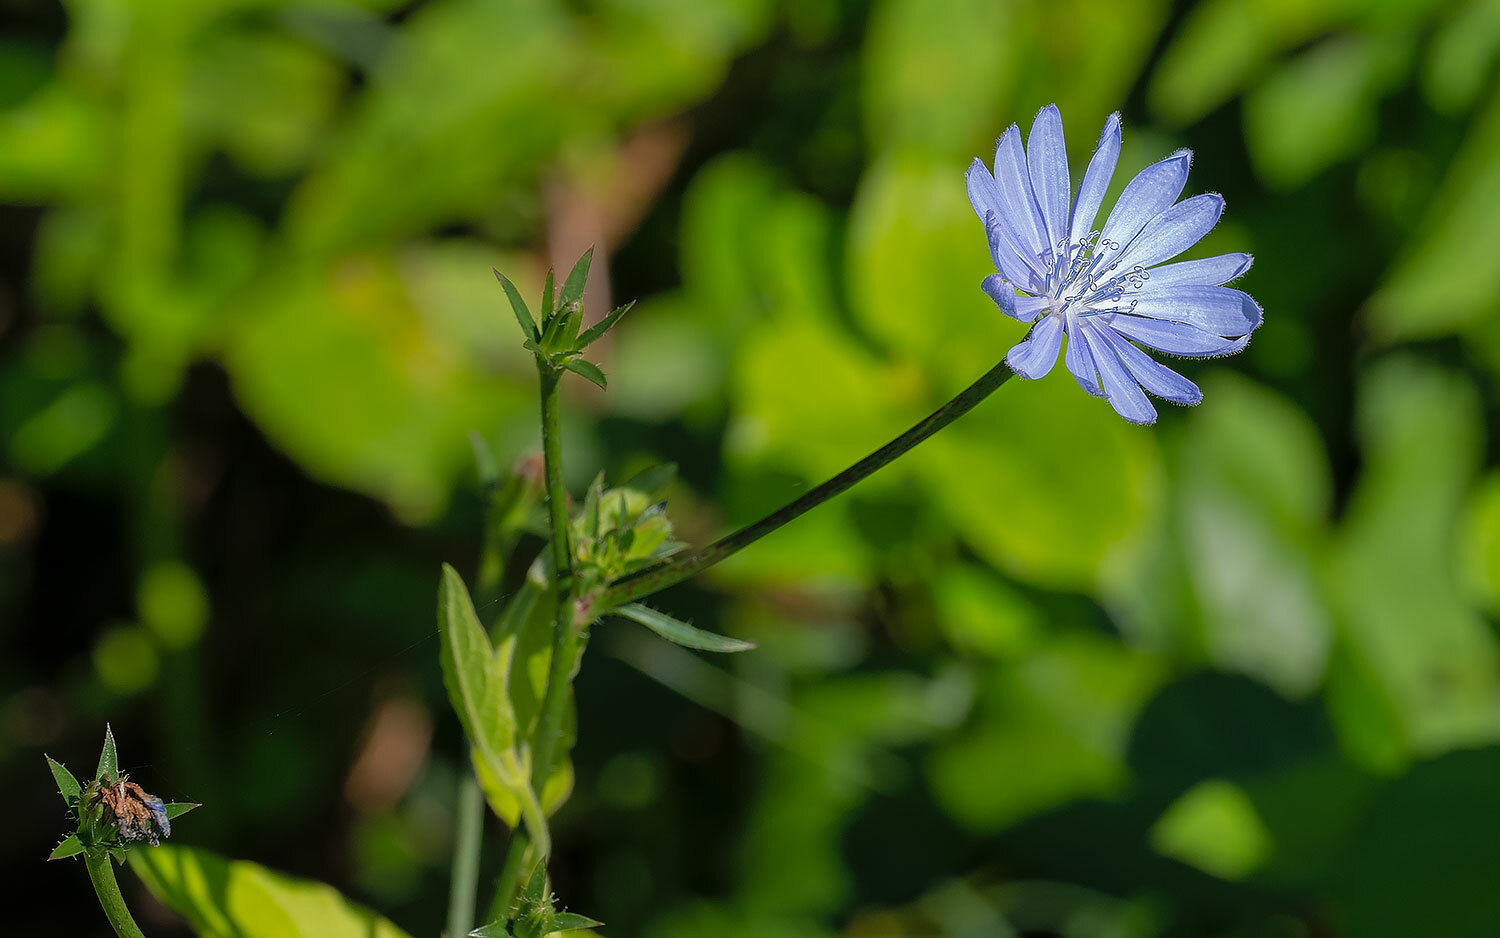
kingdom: Plantae
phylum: Tracheophyta
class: Magnoliopsida
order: Asterales
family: Asteraceae
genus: Cichorium
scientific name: Cichorium intybus
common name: Chicory
